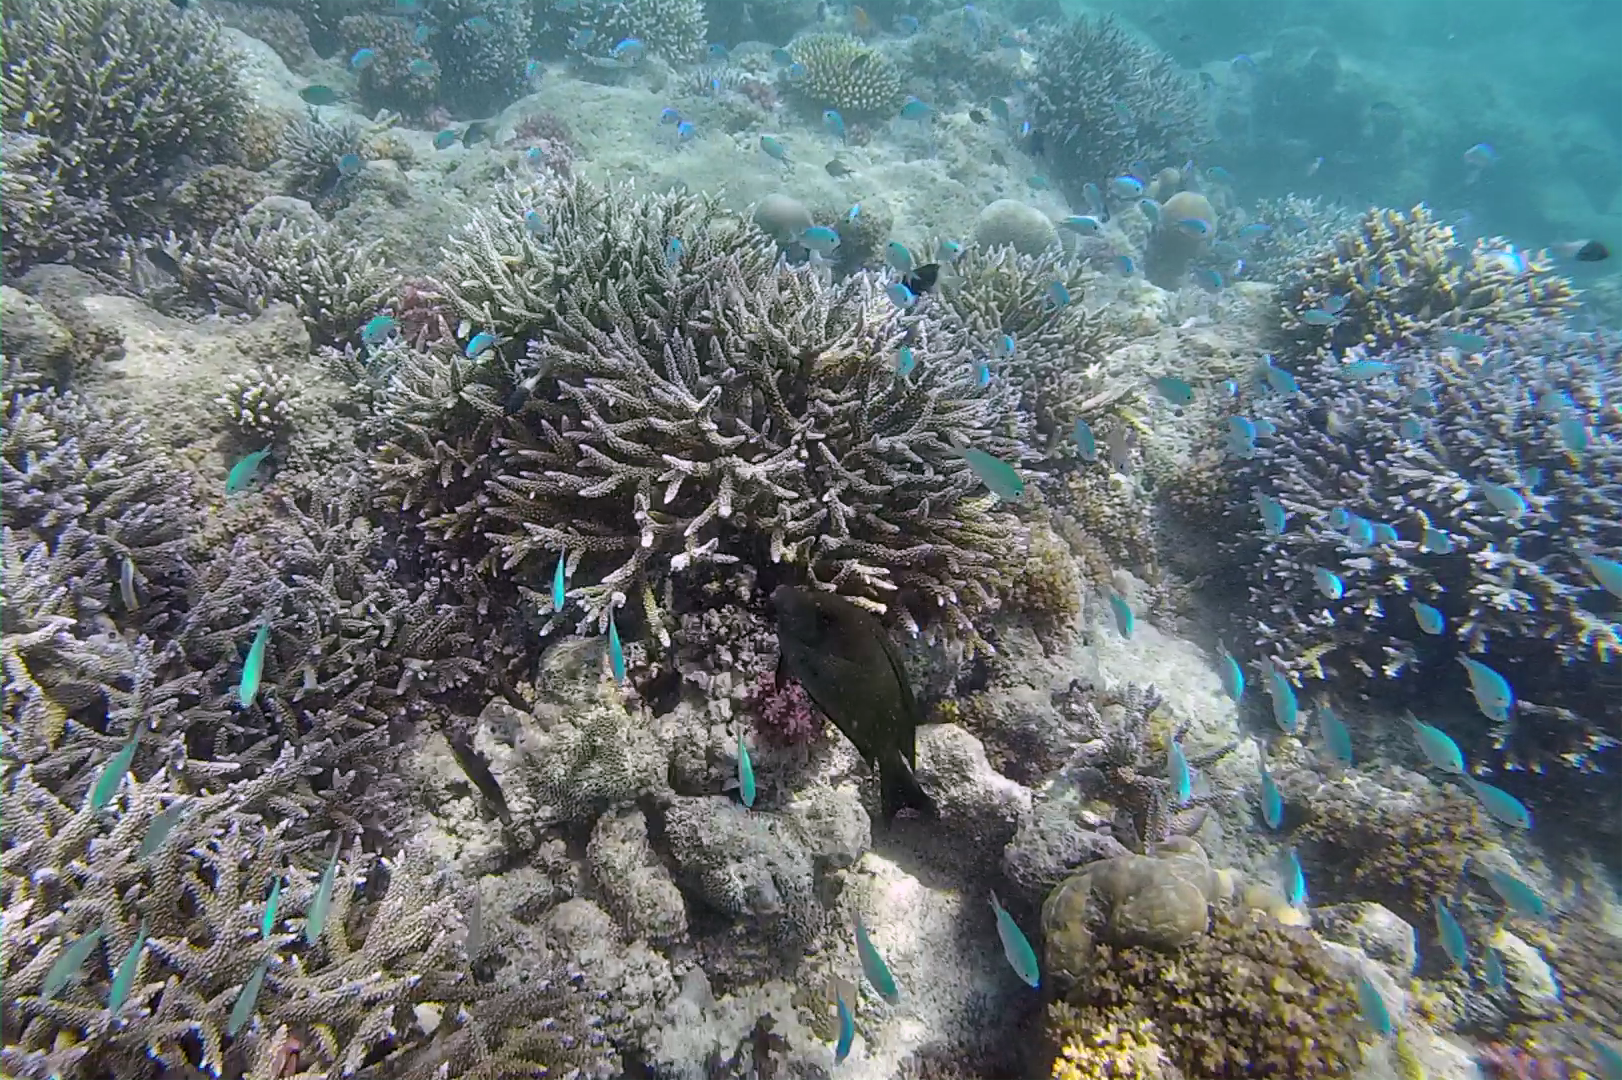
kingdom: Animalia
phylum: Chordata
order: Perciformes
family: Acanthuridae
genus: Ctenochaetus
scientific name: Ctenochaetus striatus
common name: Bristle-toothed surgeonfish
